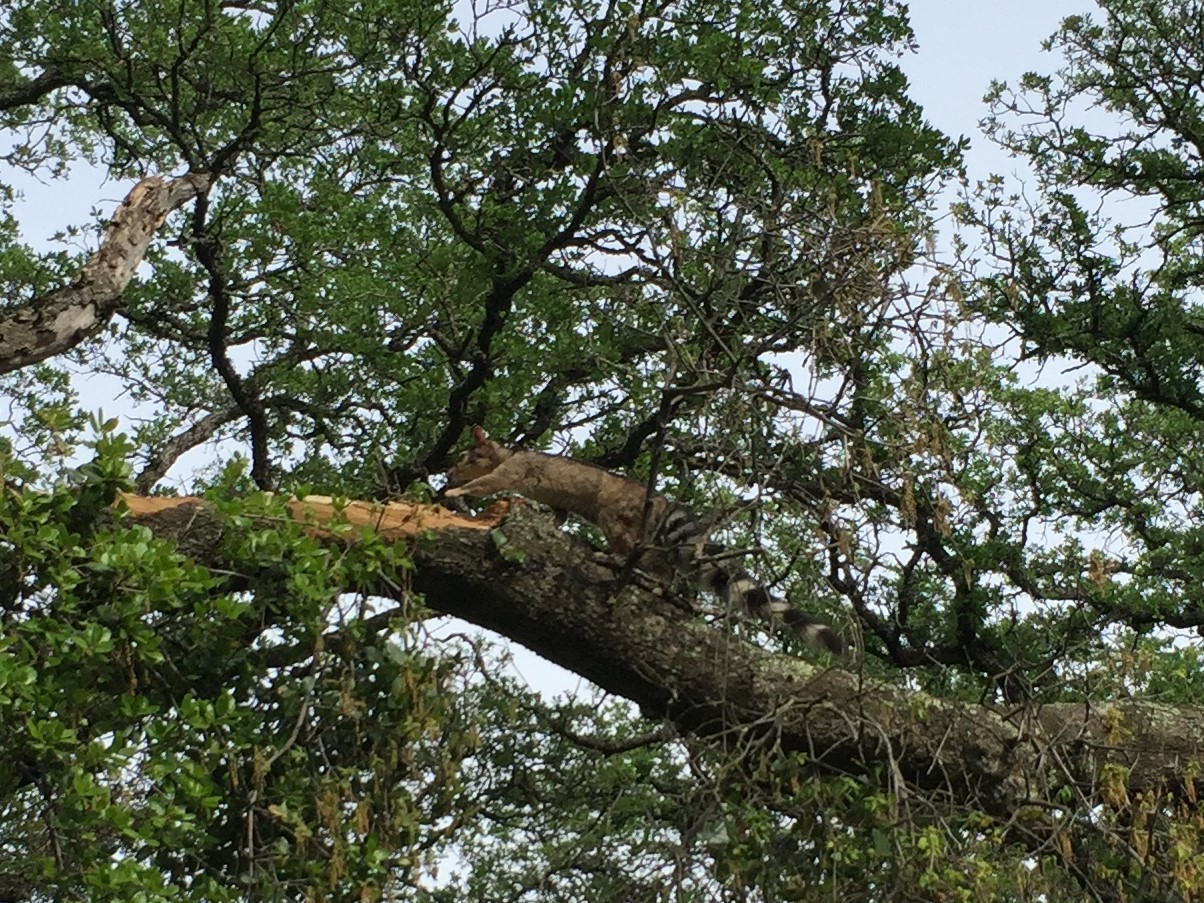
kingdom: Animalia
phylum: Chordata
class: Mammalia
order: Carnivora
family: Procyonidae
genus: Bassariscus
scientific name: Bassariscus astutus
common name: Ringtail
